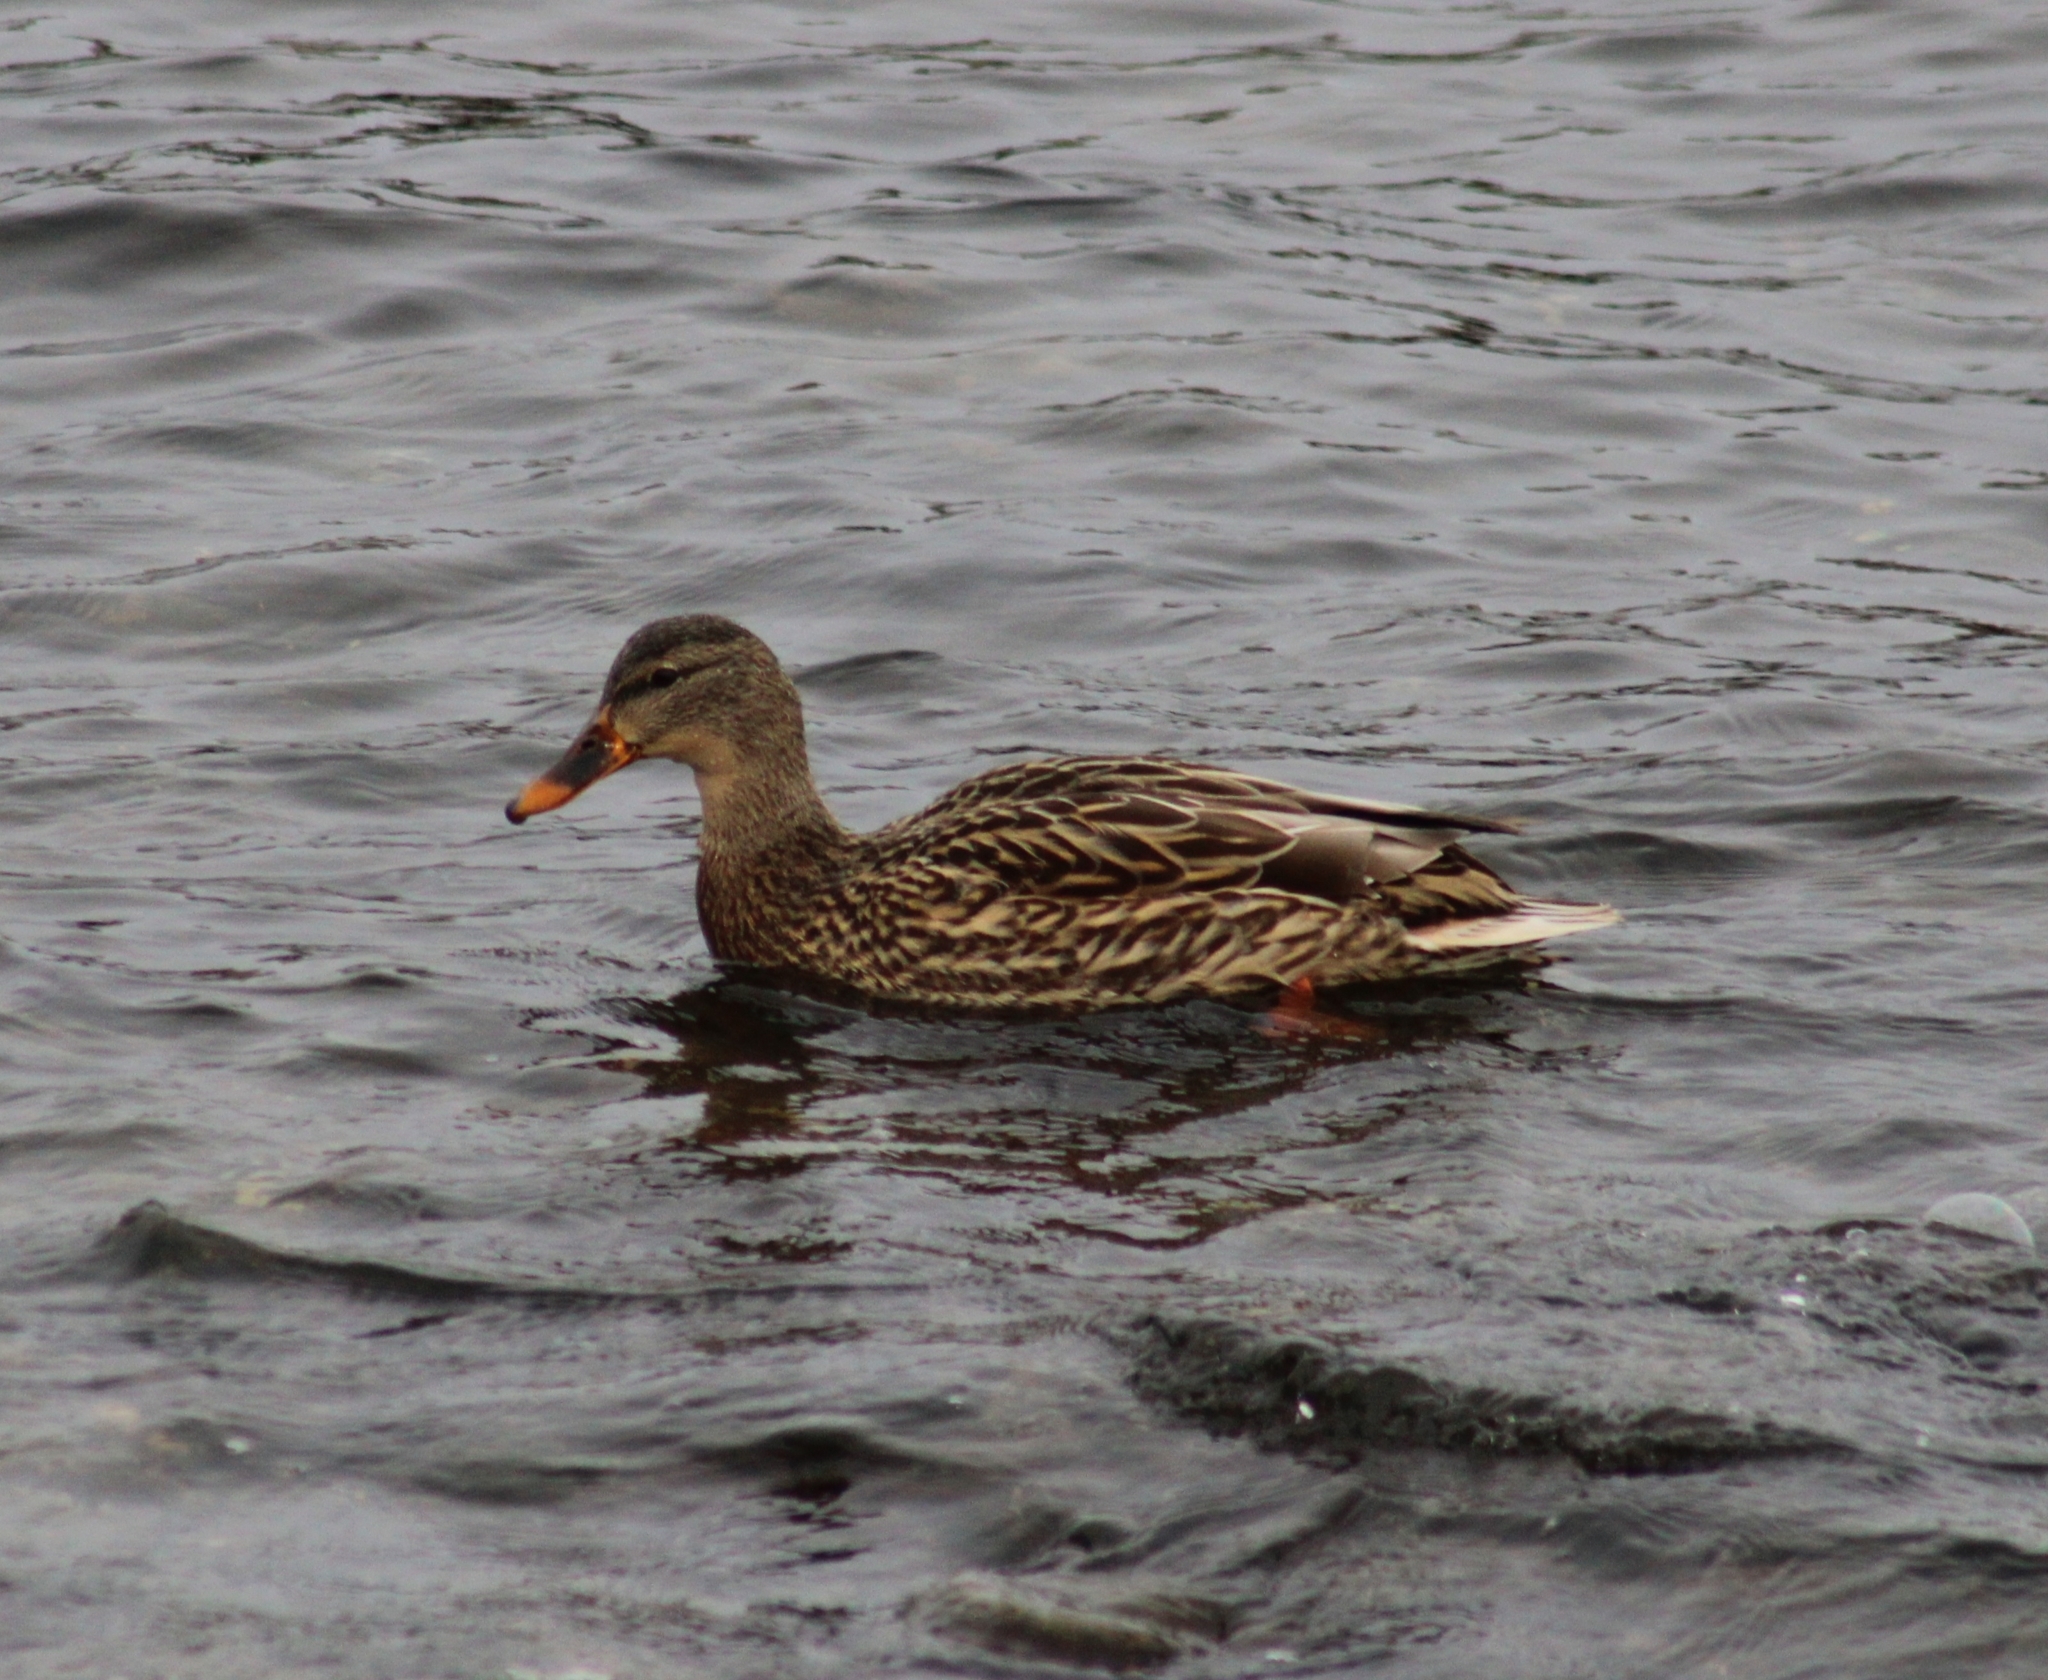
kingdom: Animalia
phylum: Chordata
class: Aves
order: Anseriformes
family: Anatidae
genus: Anas
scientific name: Anas platyrhynchos
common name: Mallard
